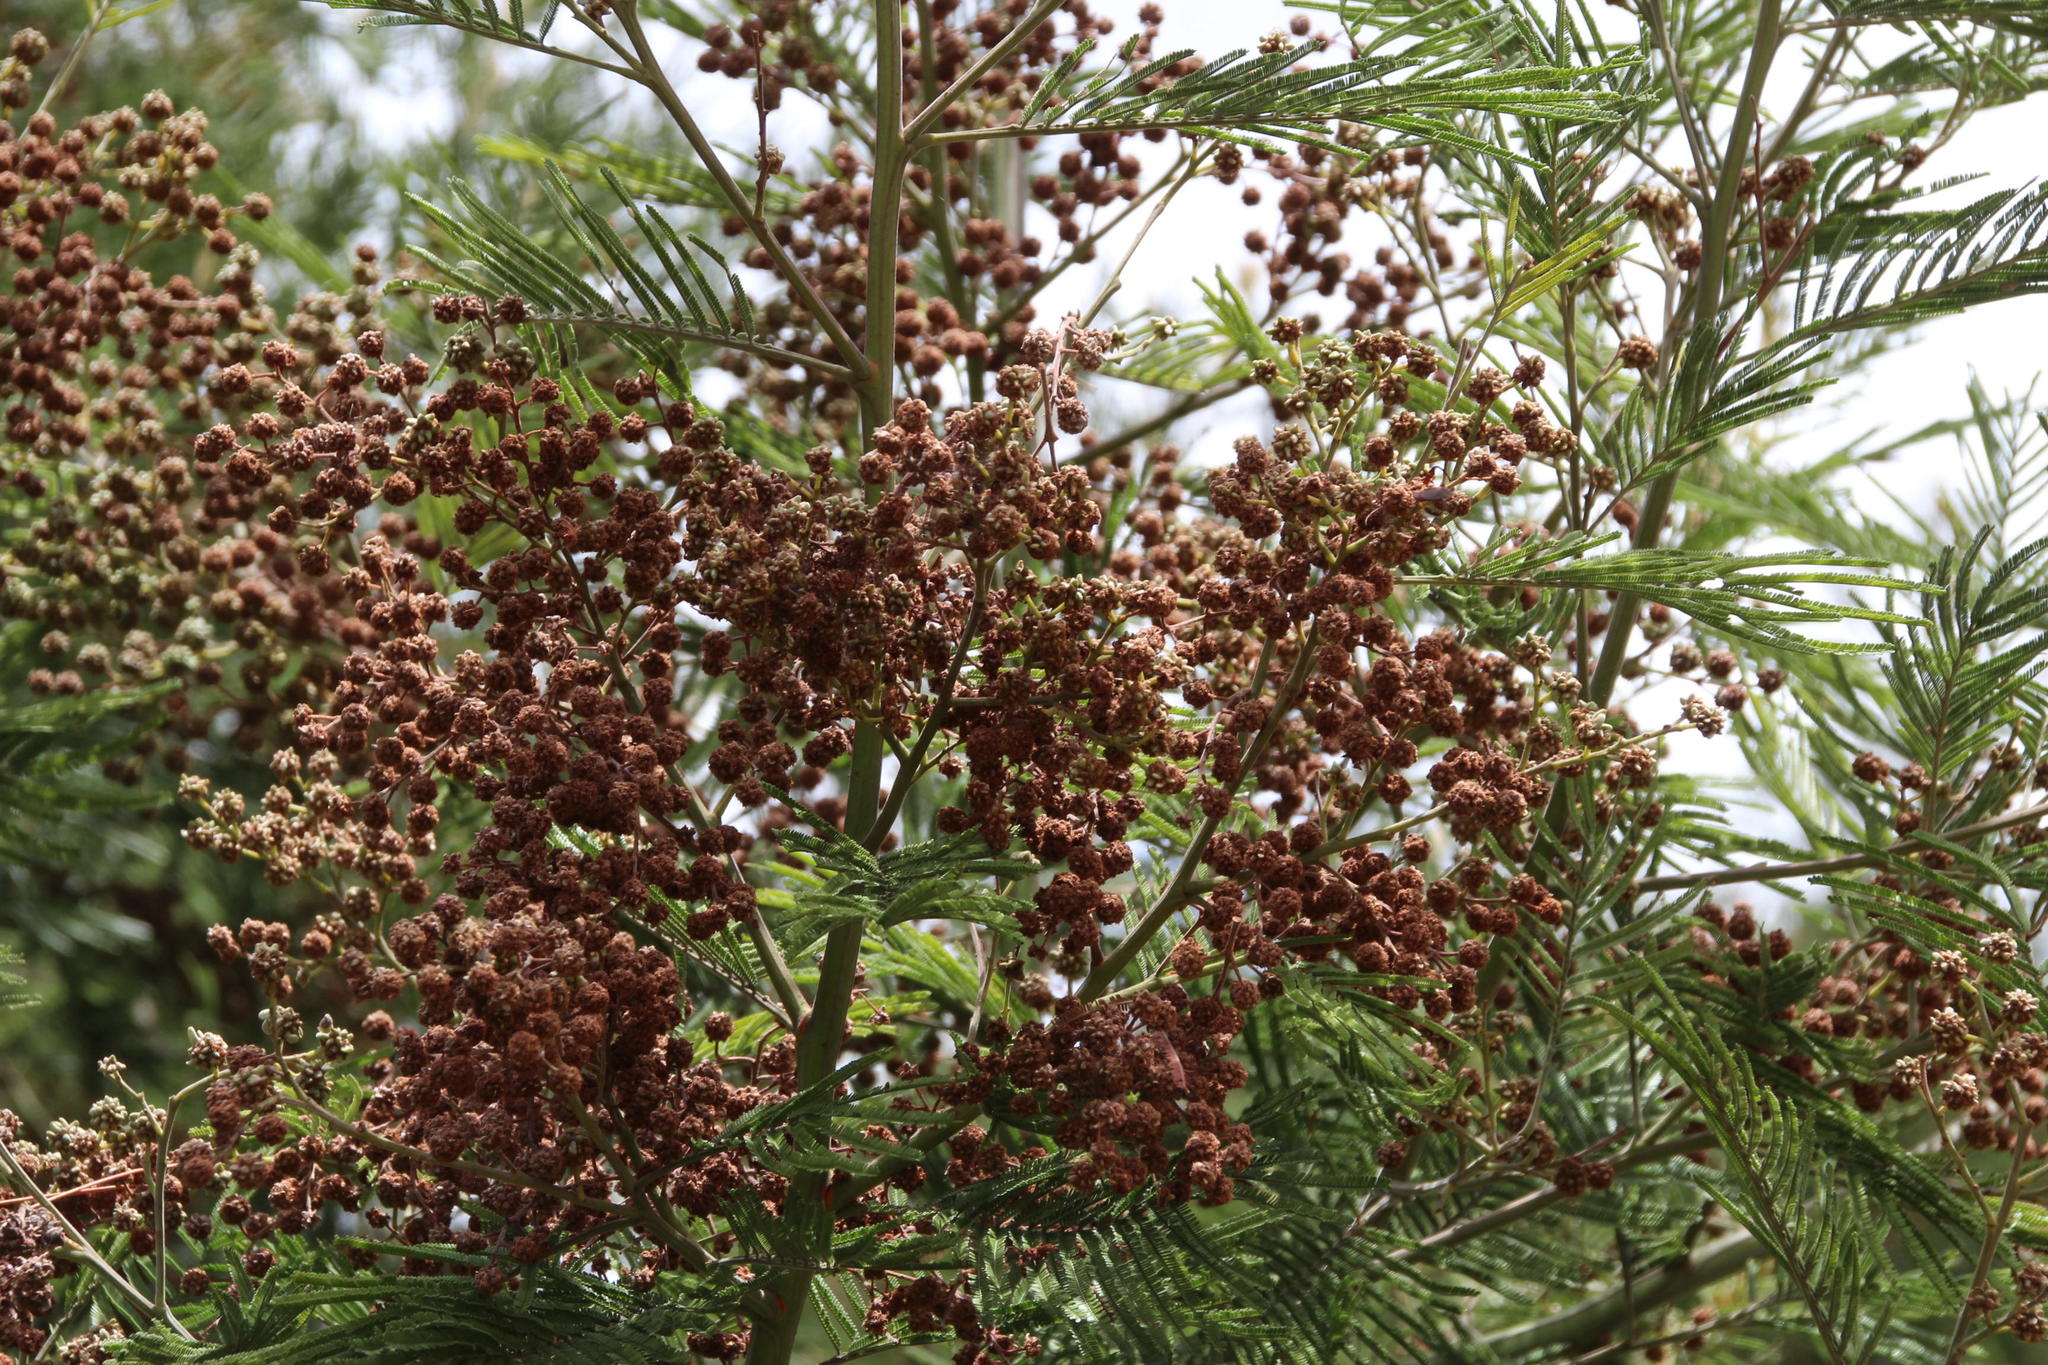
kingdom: Animalia
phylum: Arthropoda
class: Insecta
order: Diptera
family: Cecidomyiidae
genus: Dasineura
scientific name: Dasineura rubiformis
